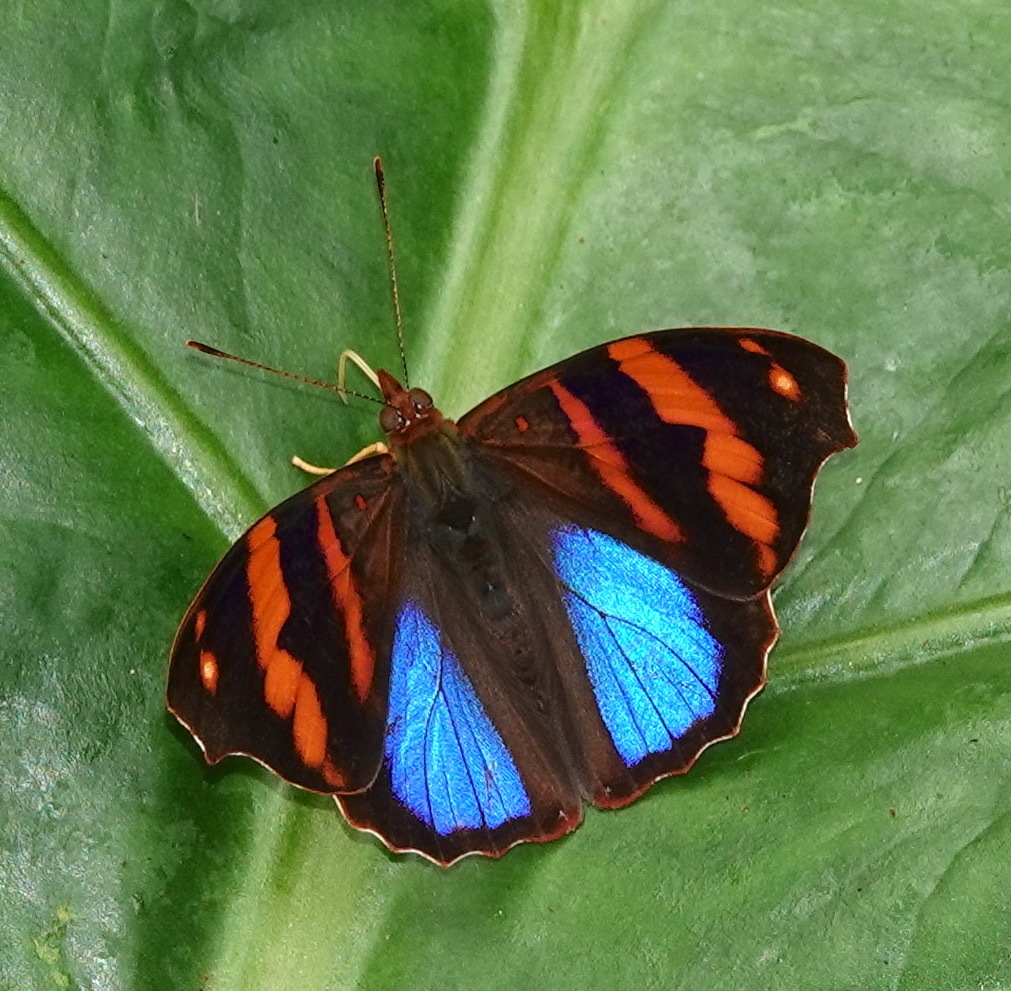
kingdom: Animalia
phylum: Arthropoda
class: Insecta
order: Lepidoptera
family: Nymphalidae
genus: Epiphile
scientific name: Epiphile orea
